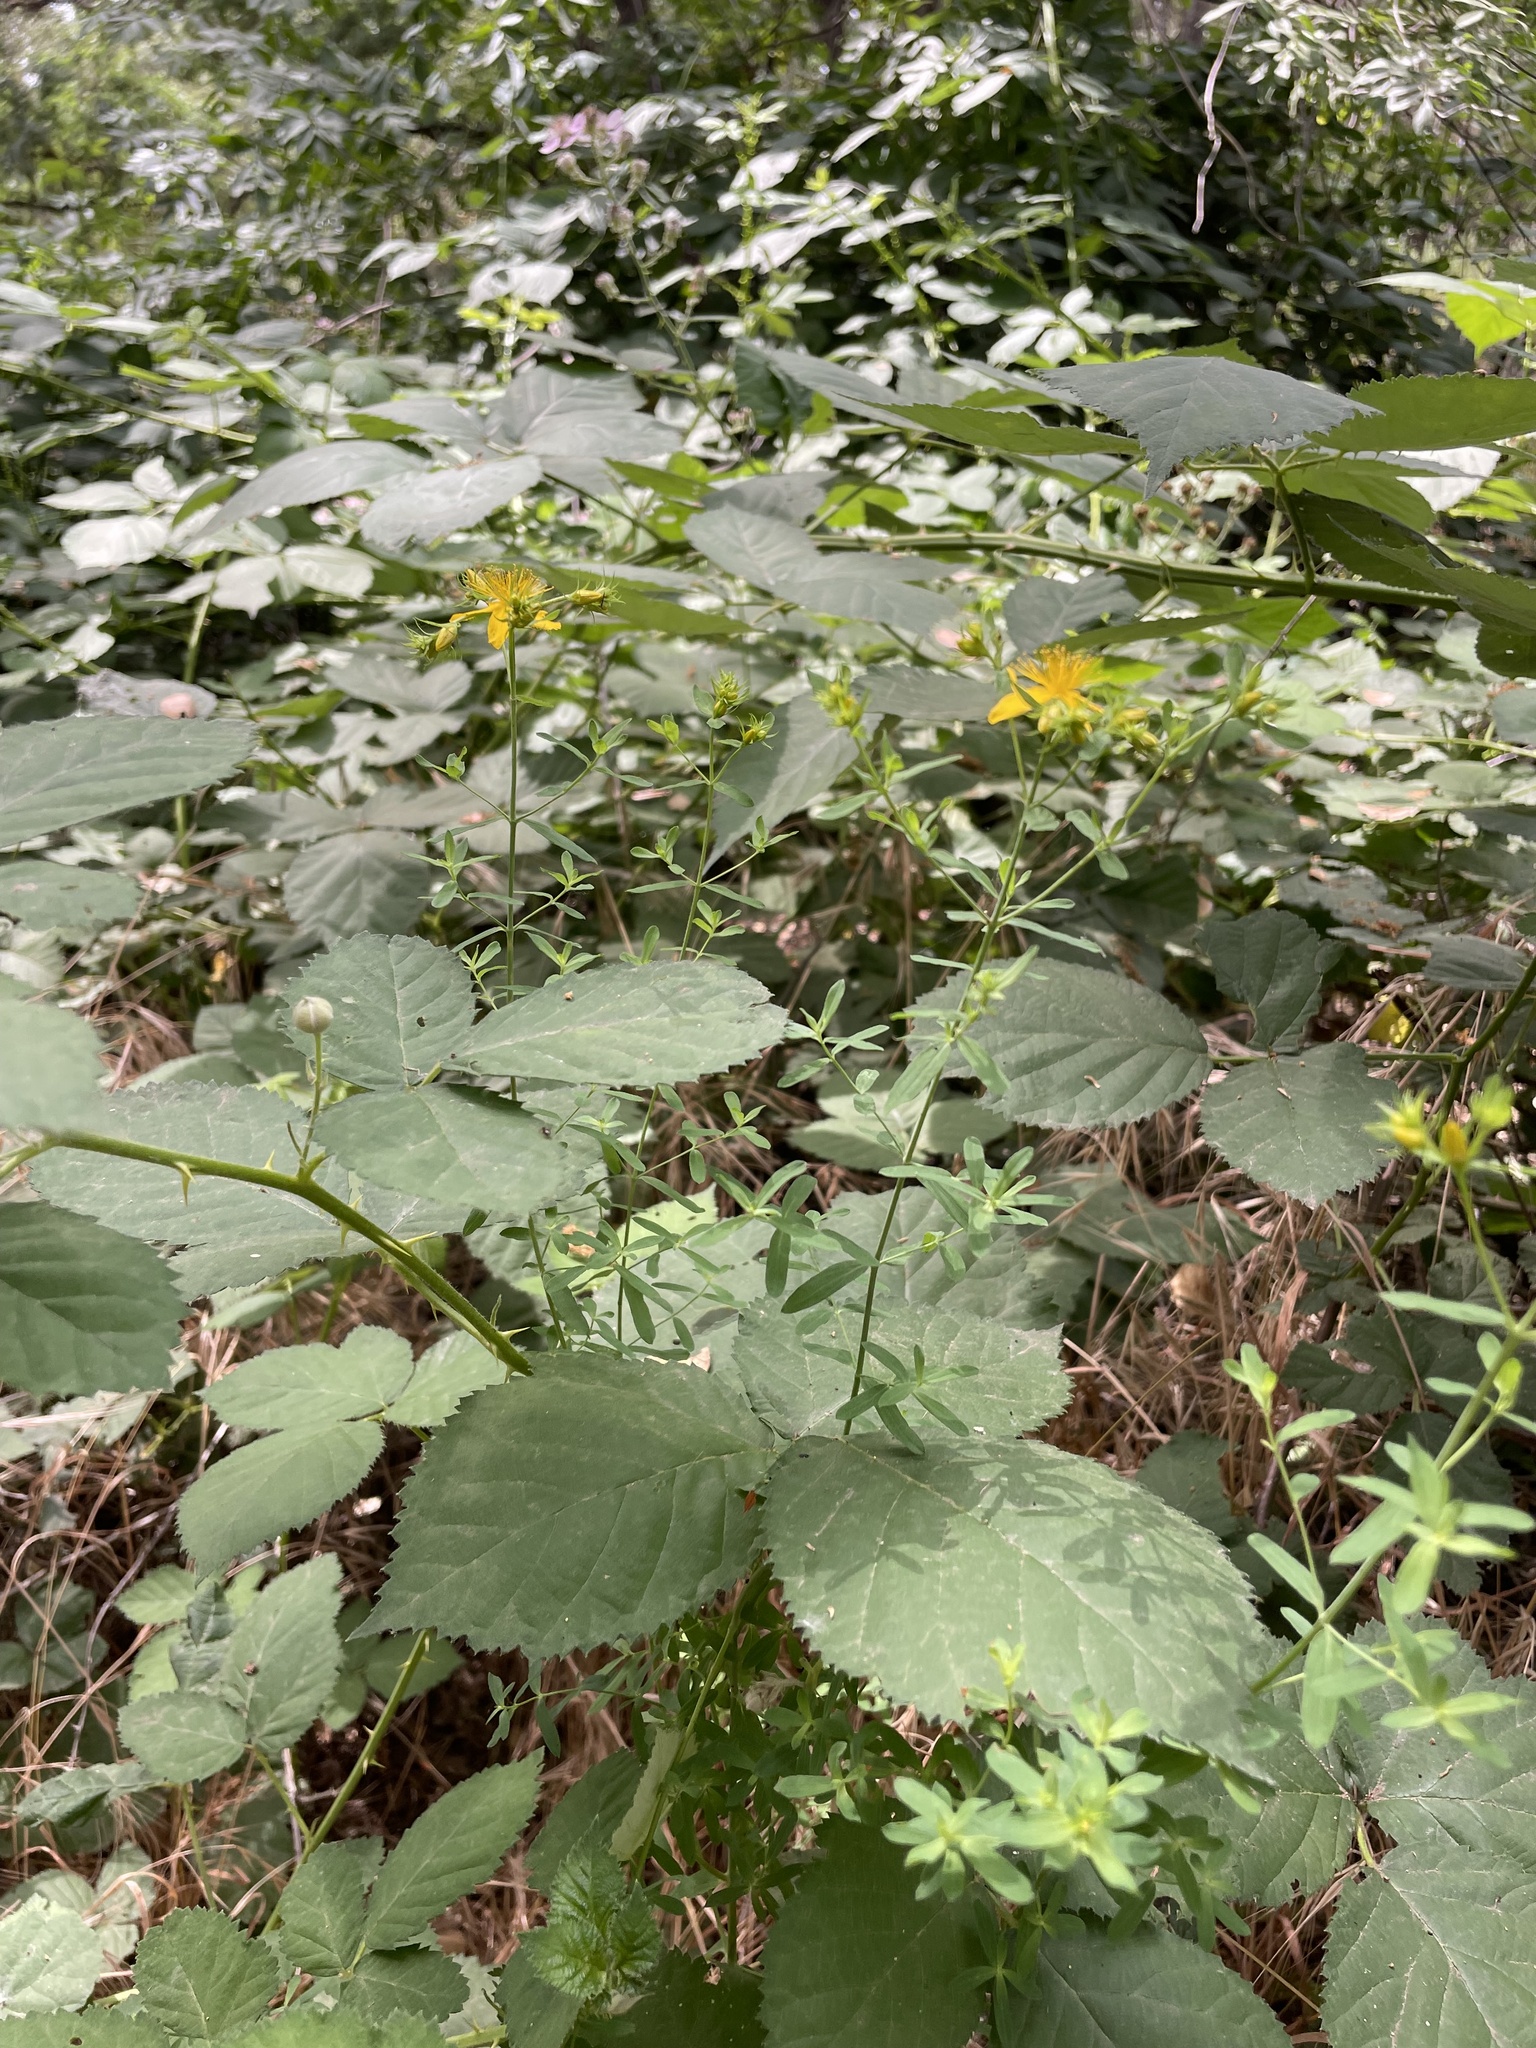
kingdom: Plantae
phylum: Tracheophyta
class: Magnoliopsida
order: Malpighiales
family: Hypericaceae
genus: Hypericum
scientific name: Hypericum perforatum
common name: Common st. johnswort
